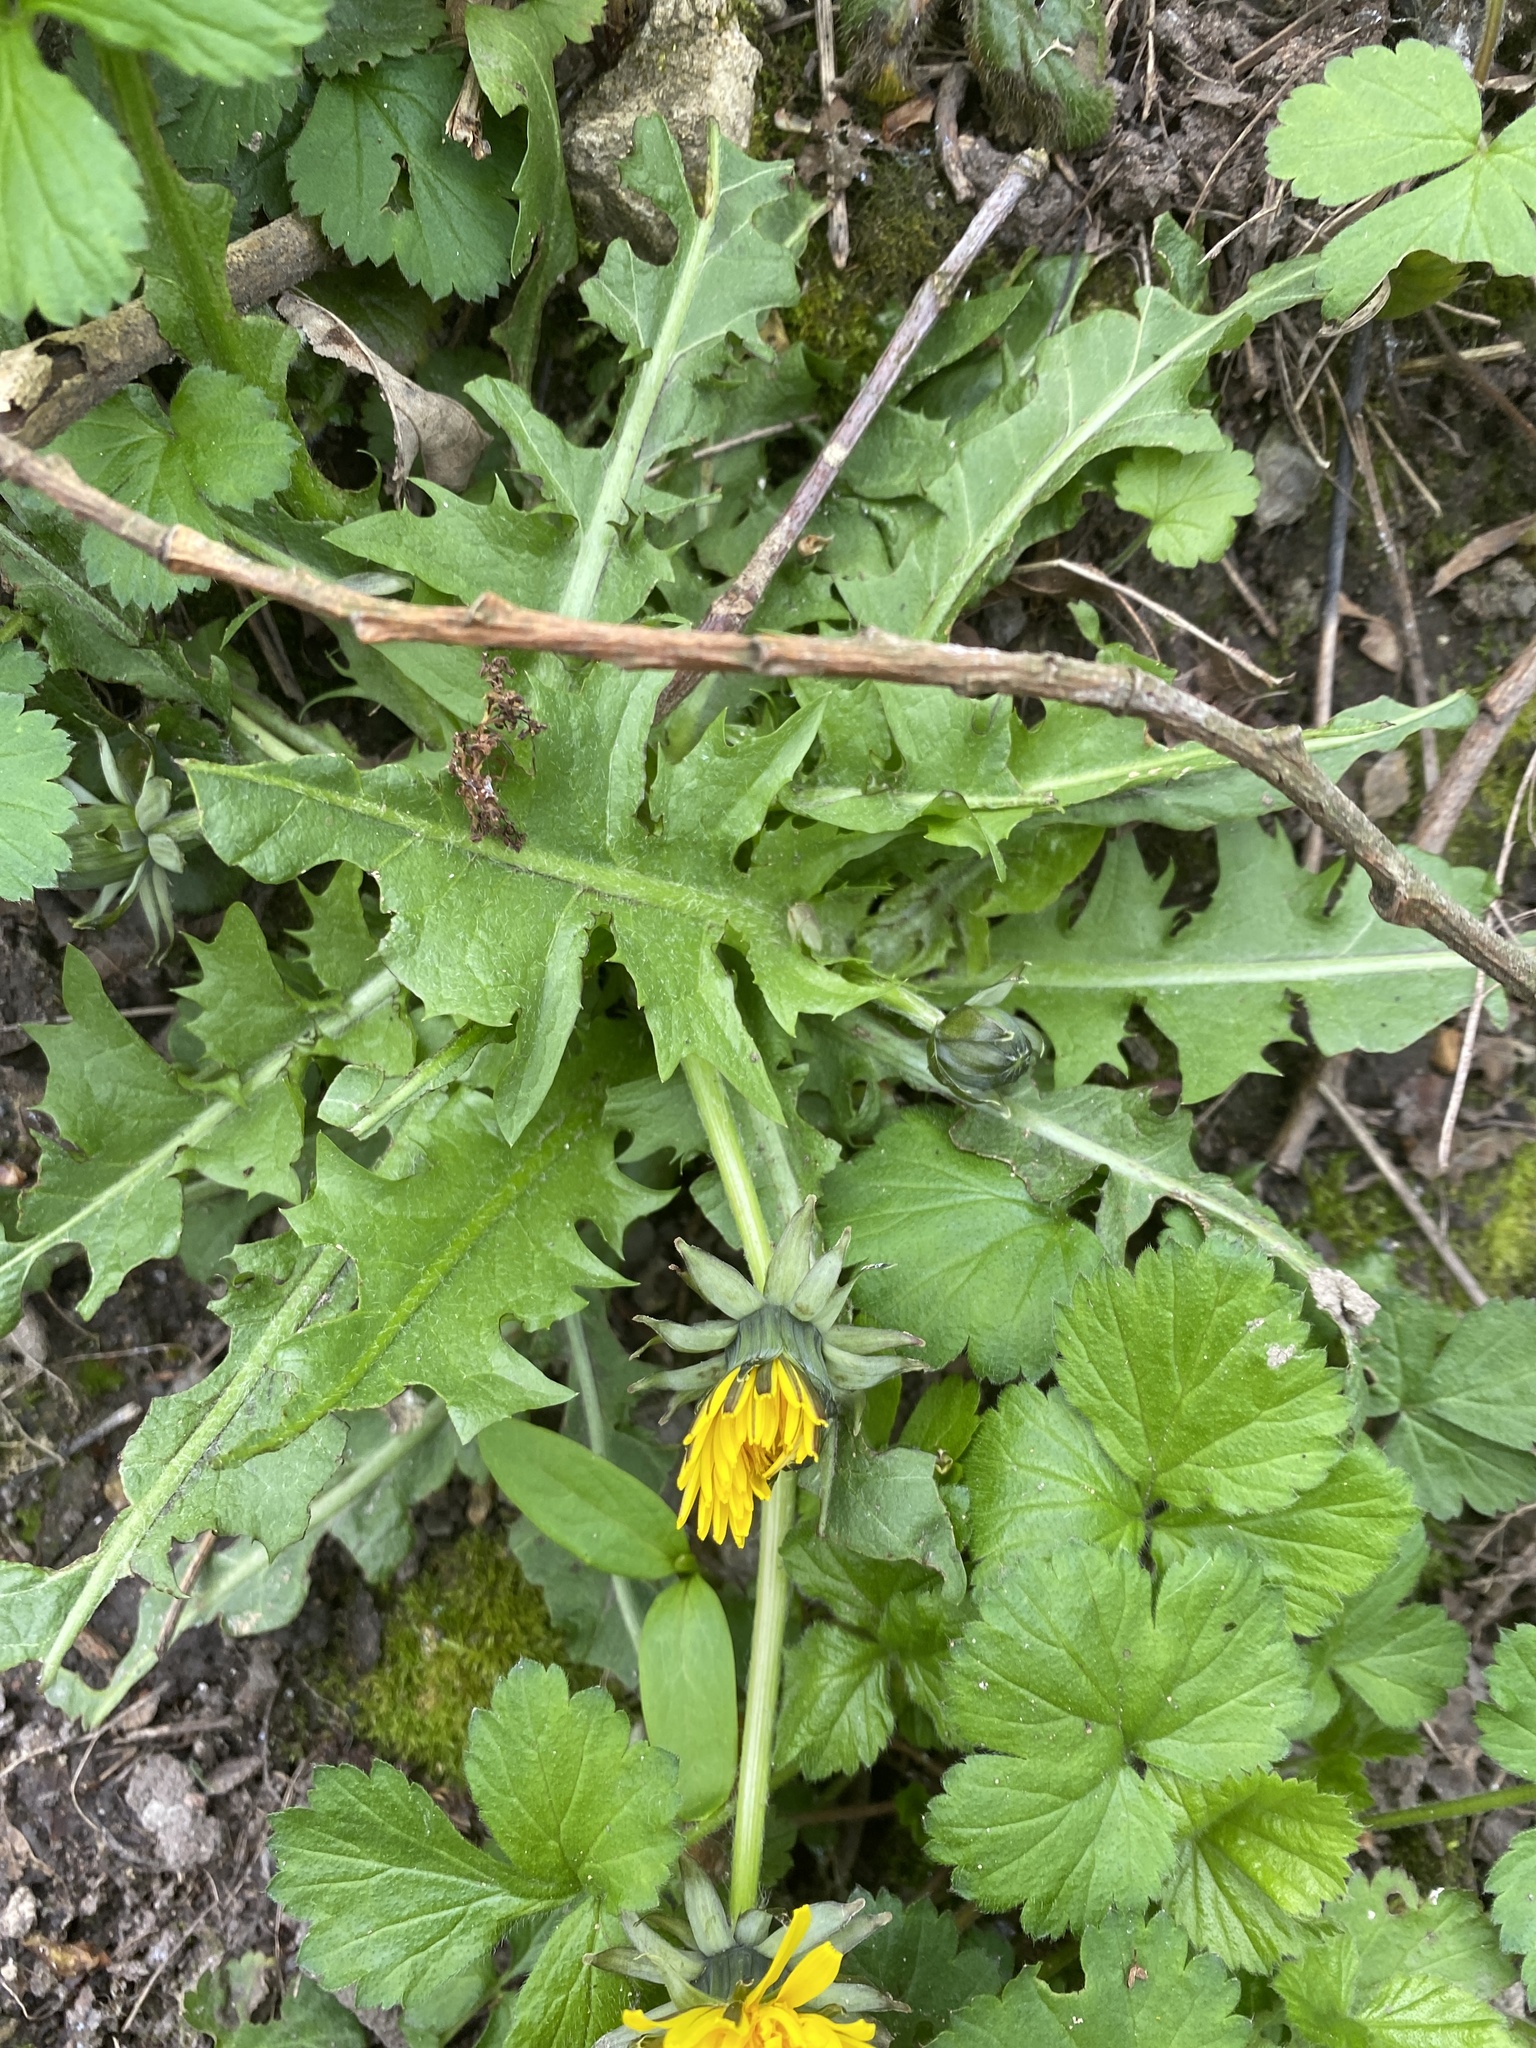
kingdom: Plantae
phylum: Tracheophyta
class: Magnoliopsida
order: Asterales
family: Asteraceae
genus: Taraxacum
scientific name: Taraxacum officinale
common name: Common dandelion
